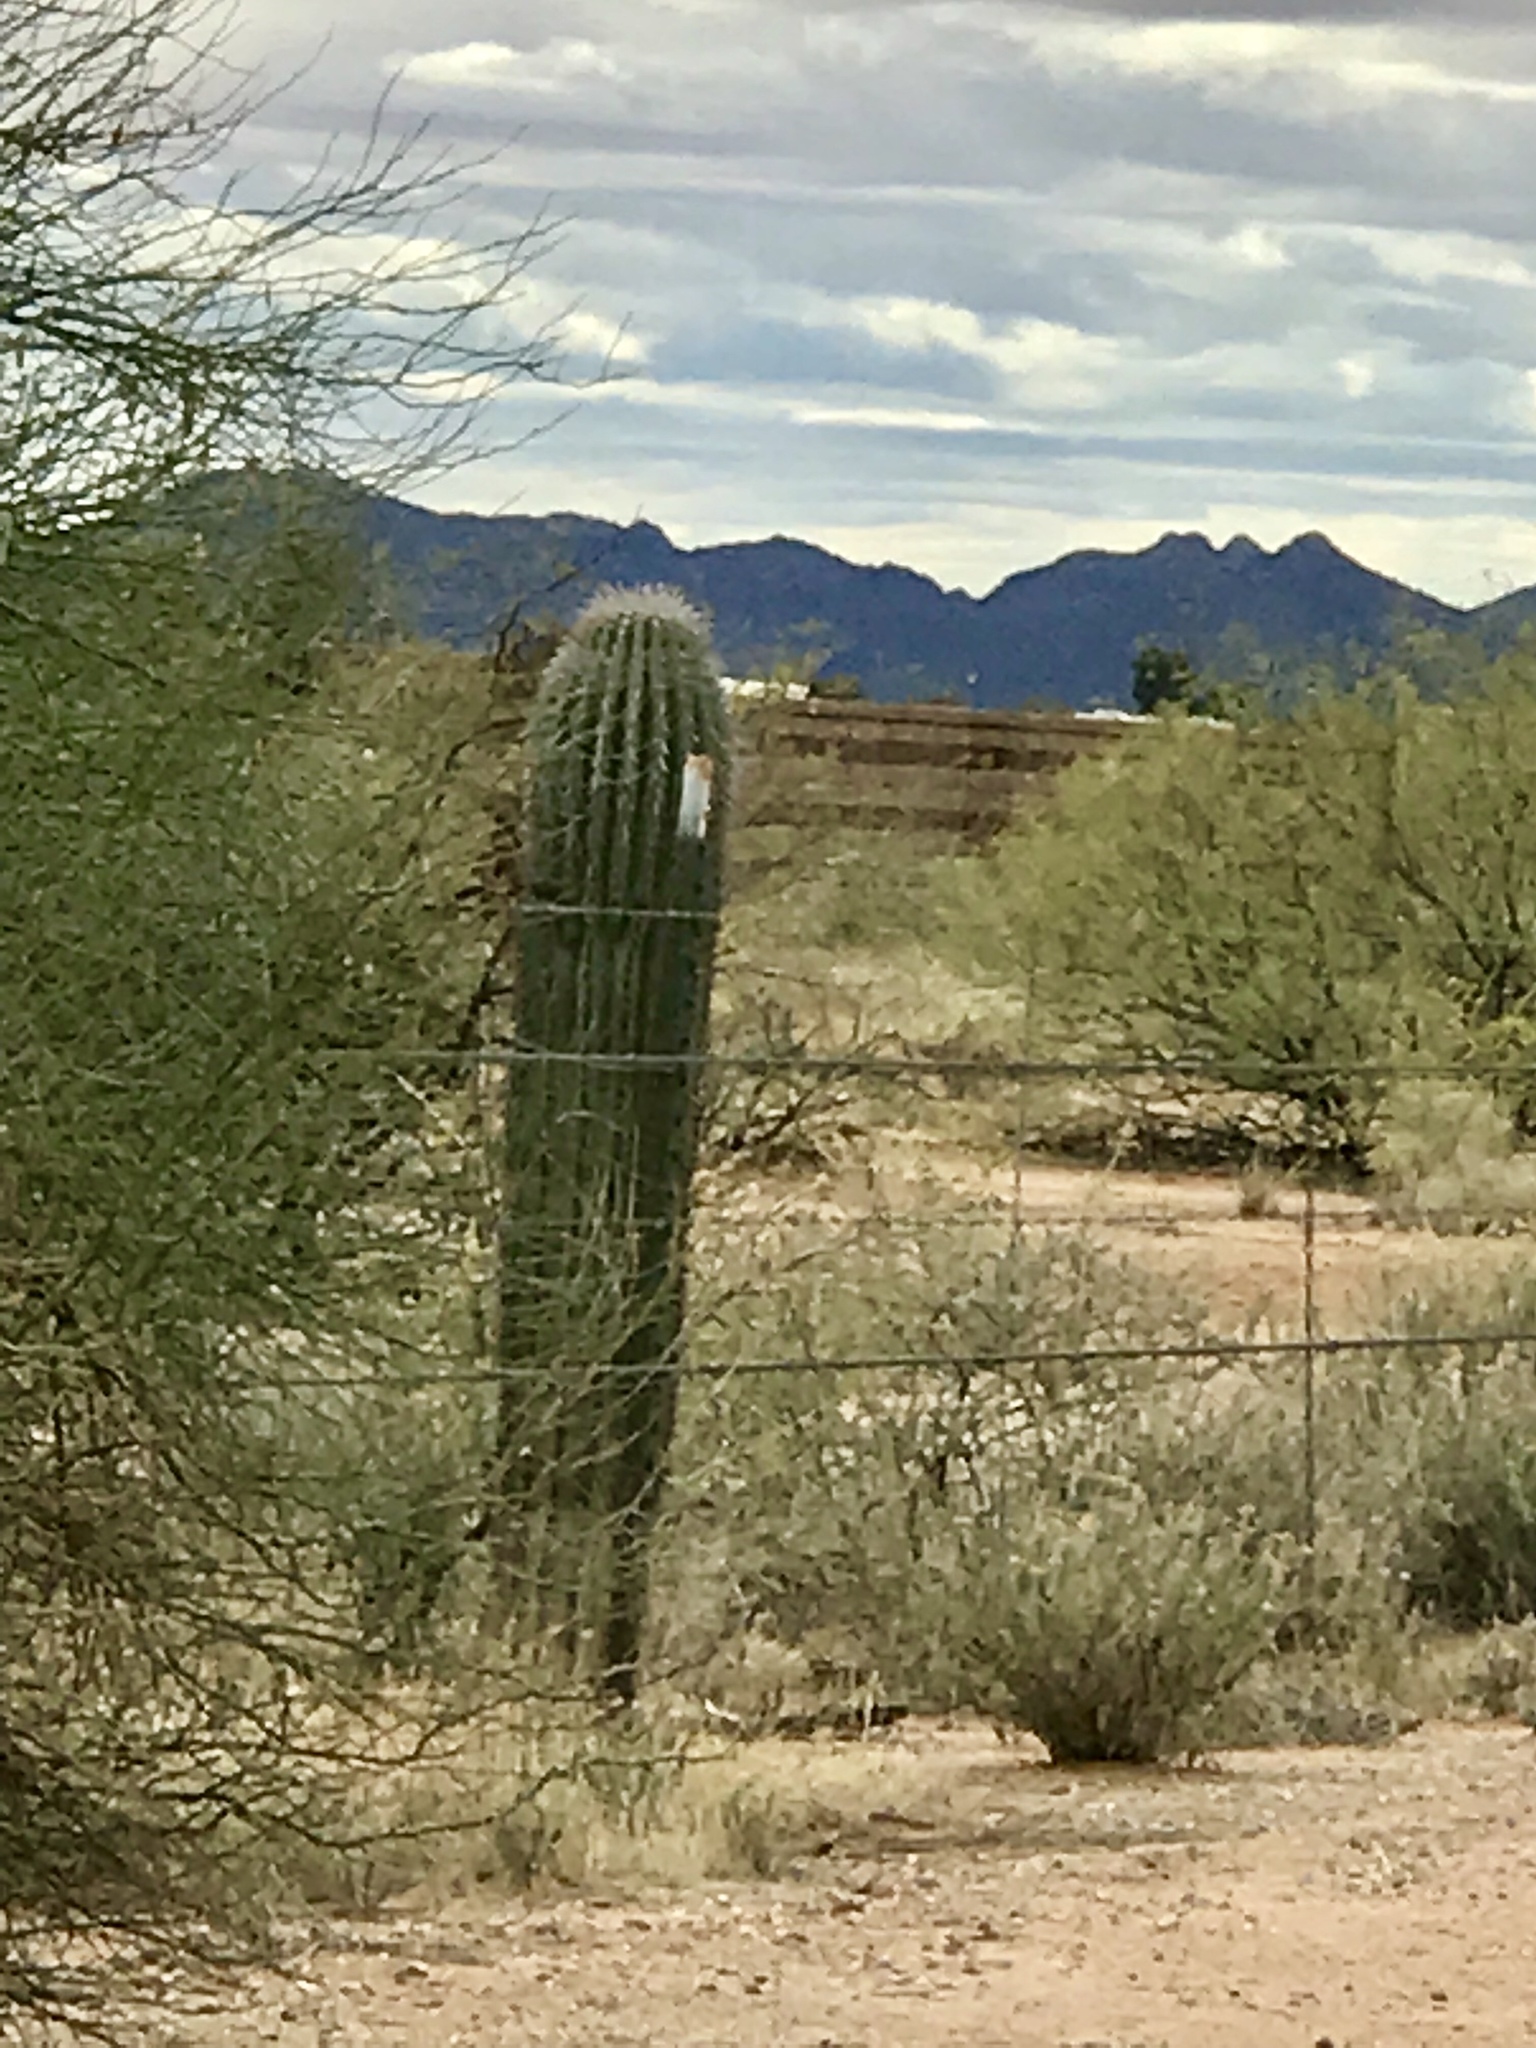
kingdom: Plantae
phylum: Tracheophyta
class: Magnoliopsida
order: Caryophyllales
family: Cactaceae
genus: Carnegiea
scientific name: Carnegiea gigantea
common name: Saguaro
